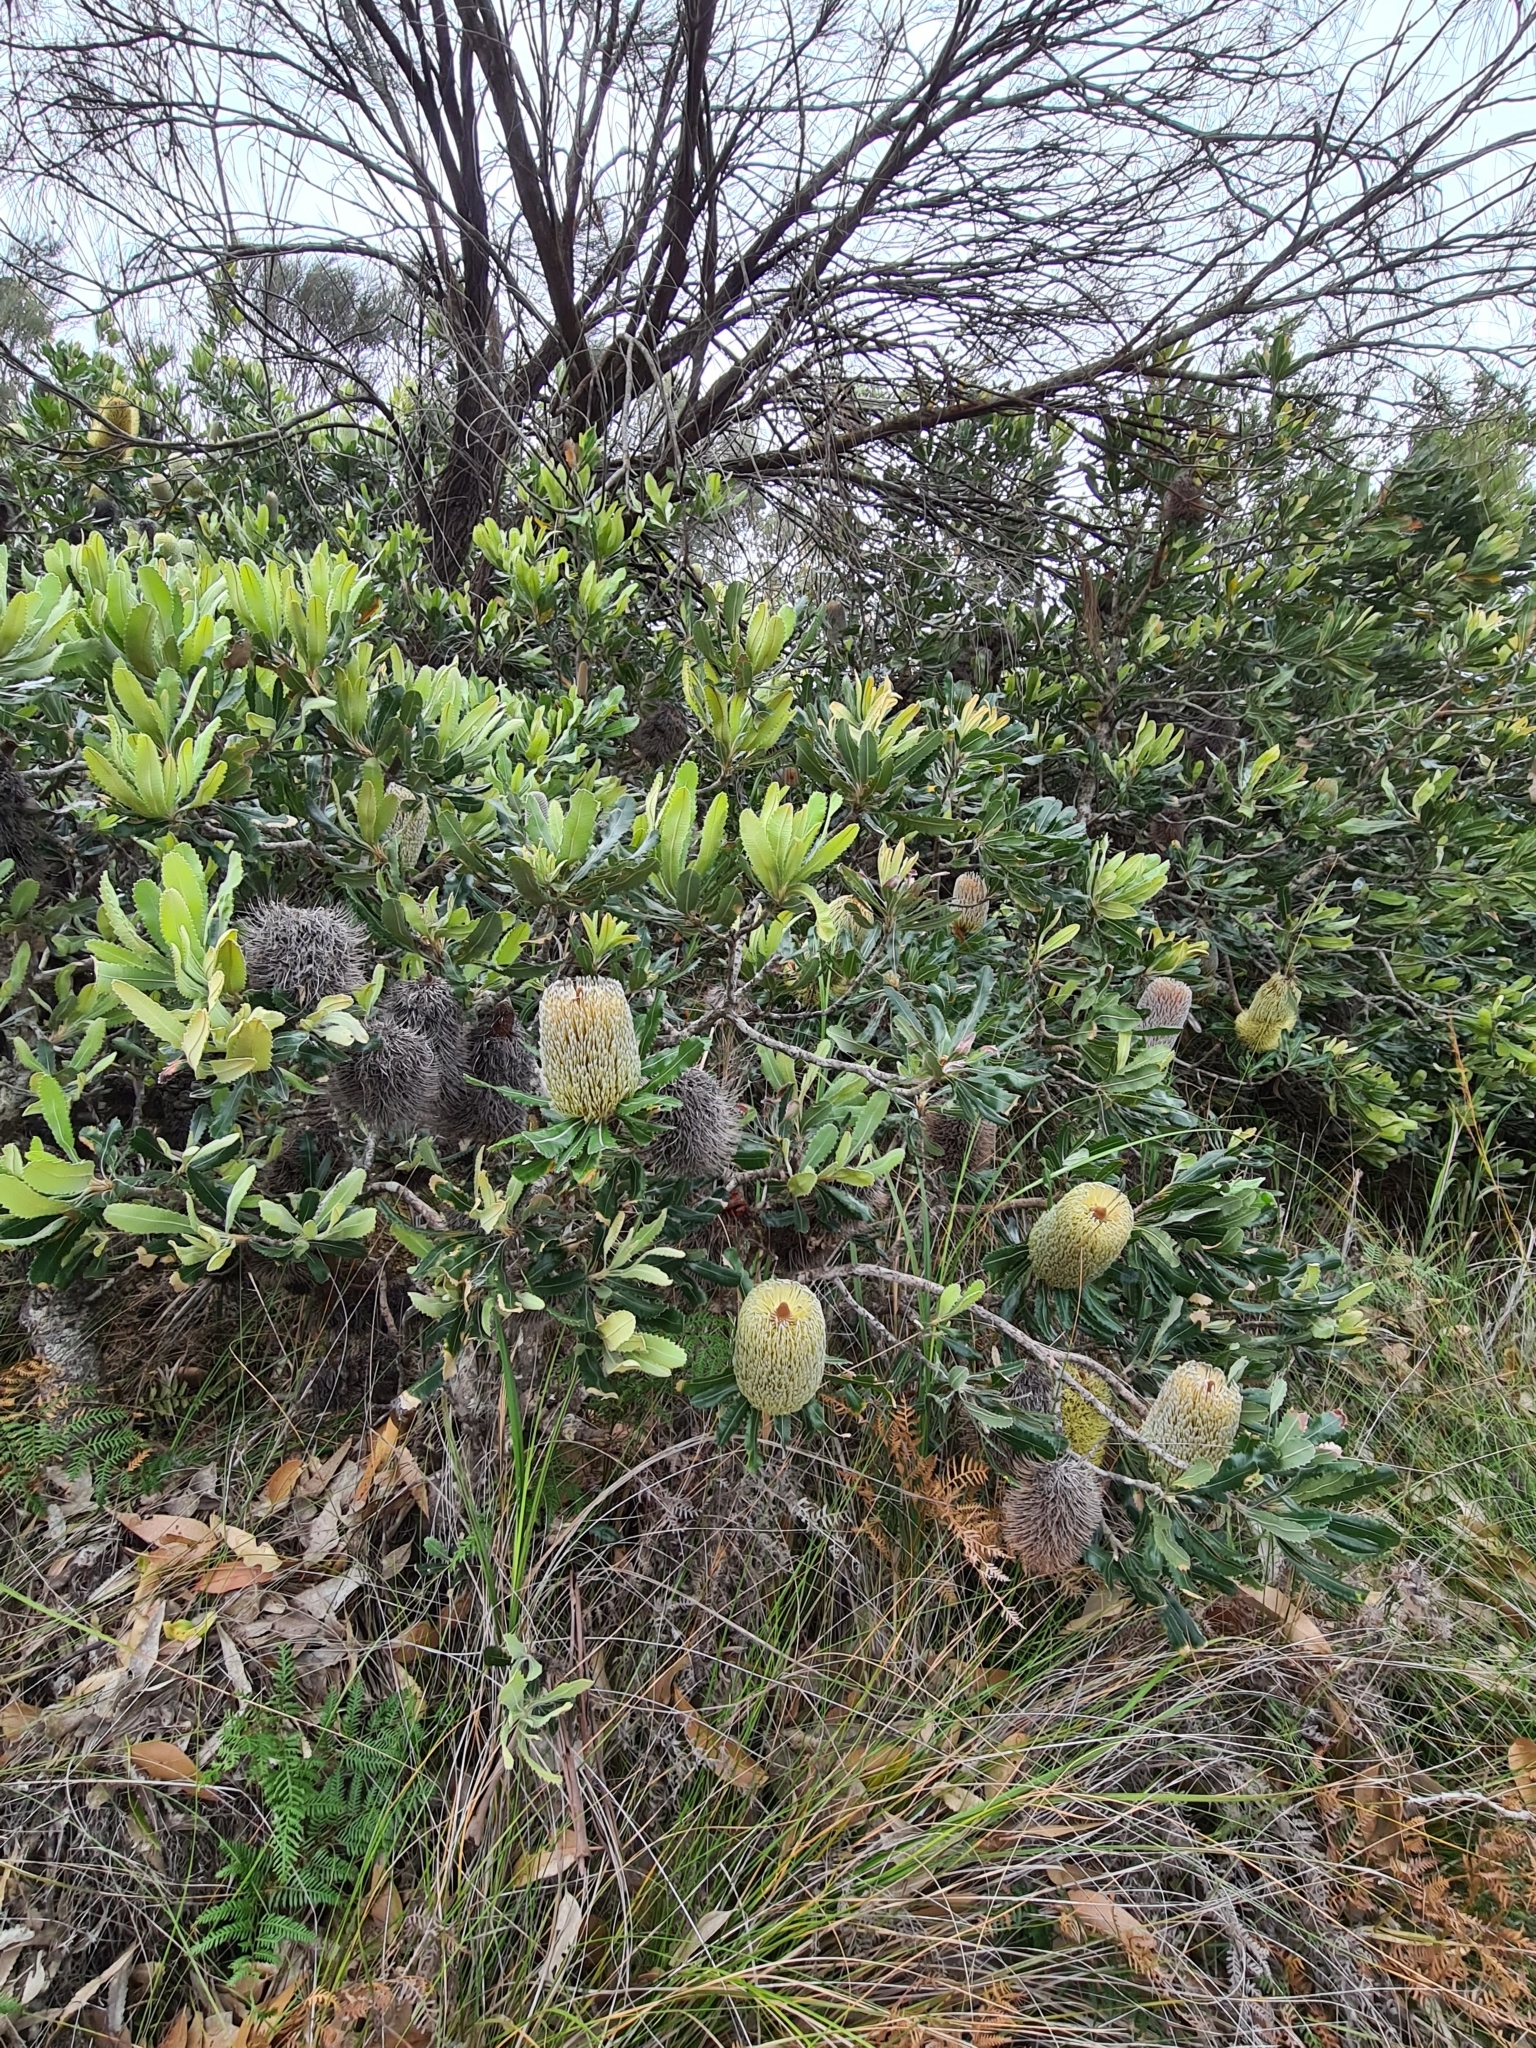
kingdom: Plantae
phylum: Tracheophyta
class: Magnoliopsida
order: Proteales
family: Proteaceae
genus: Banksia
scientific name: Banksia serrata
